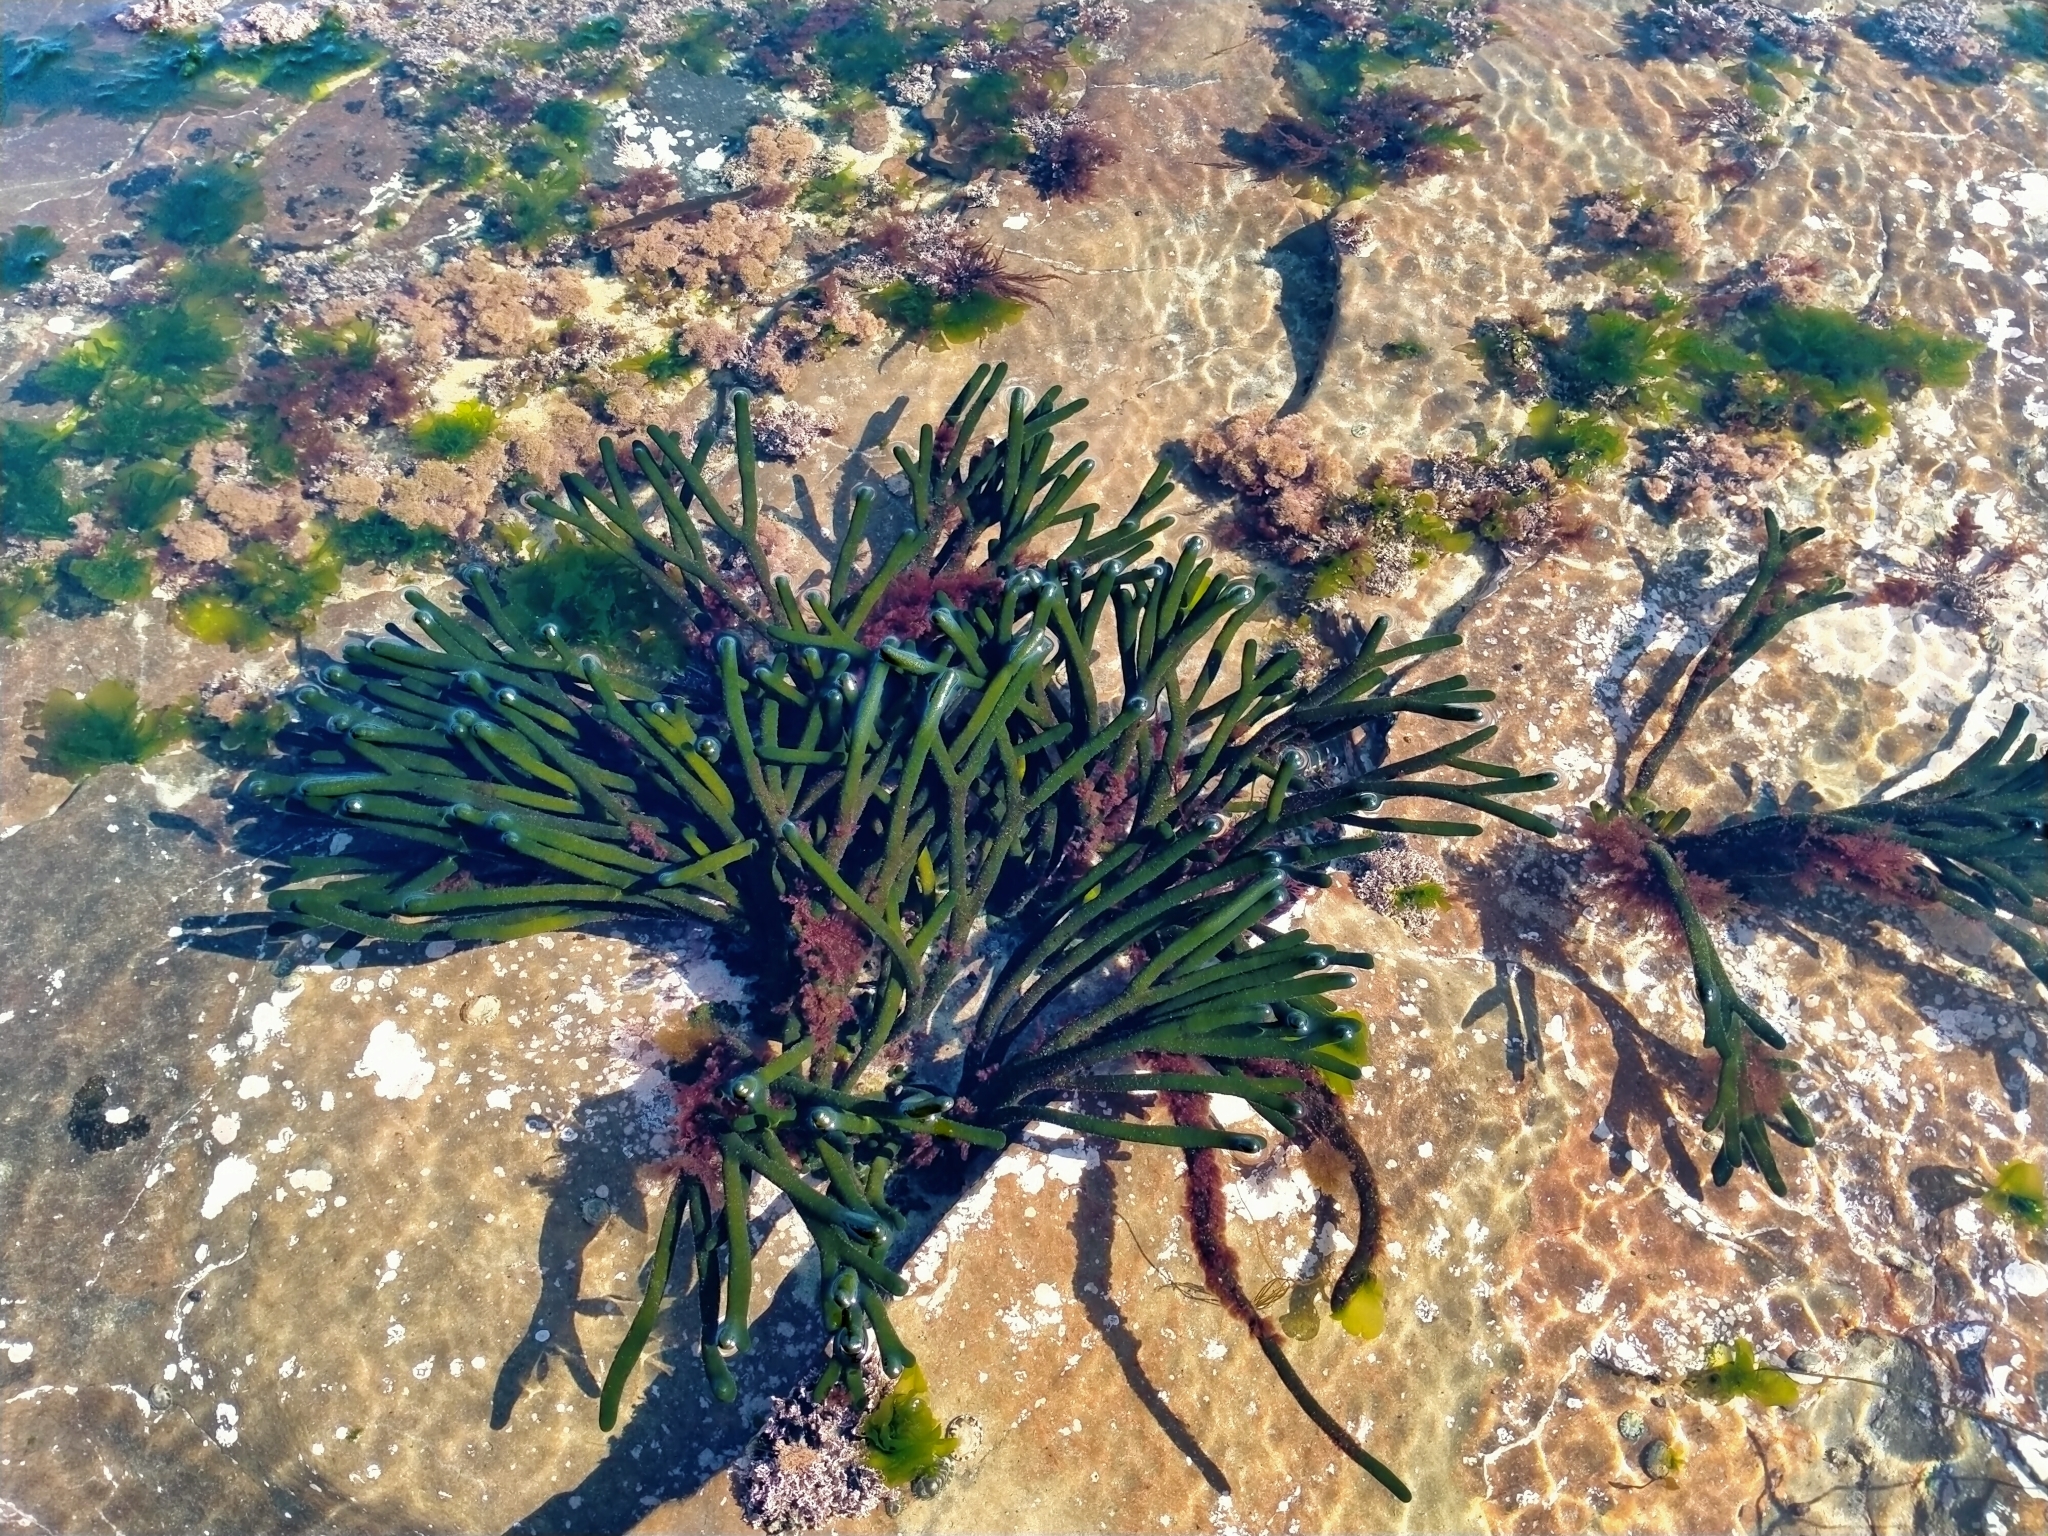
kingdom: Plantae
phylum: Chlorophyta
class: Ulvophyceae
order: Bryopsidales
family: Codiaceae
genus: Codium
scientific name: Codium fragile
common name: Dead man's fingers
